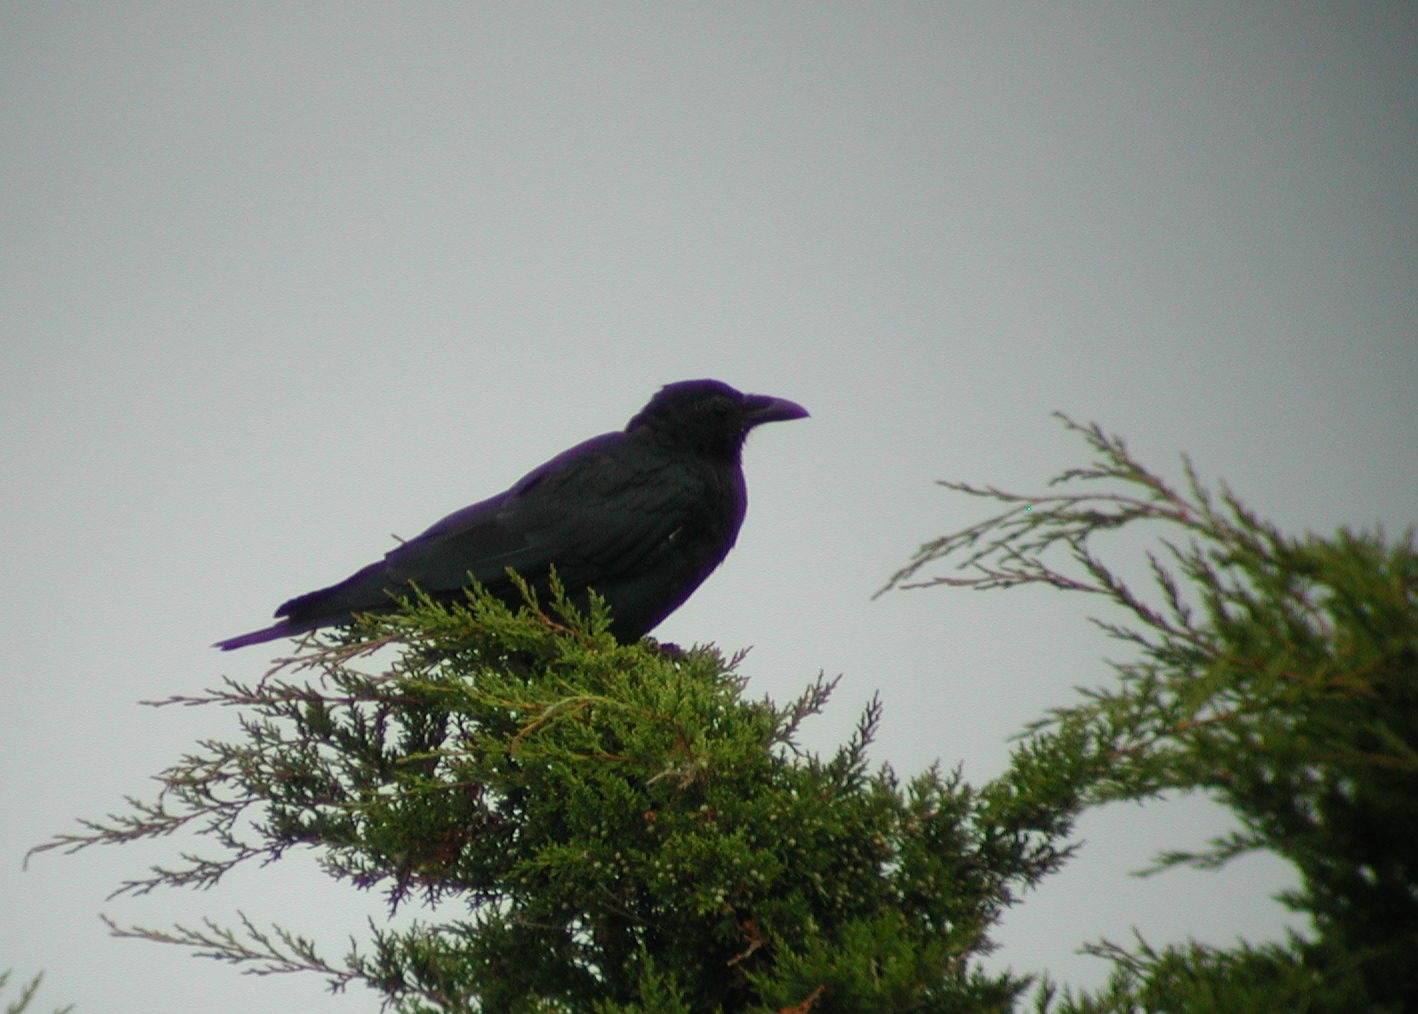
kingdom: Animalia
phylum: Chordata
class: Aves
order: Passeriformes
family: Corvidae
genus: Corvus
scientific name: Corvus ossifragus
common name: Fish crow
